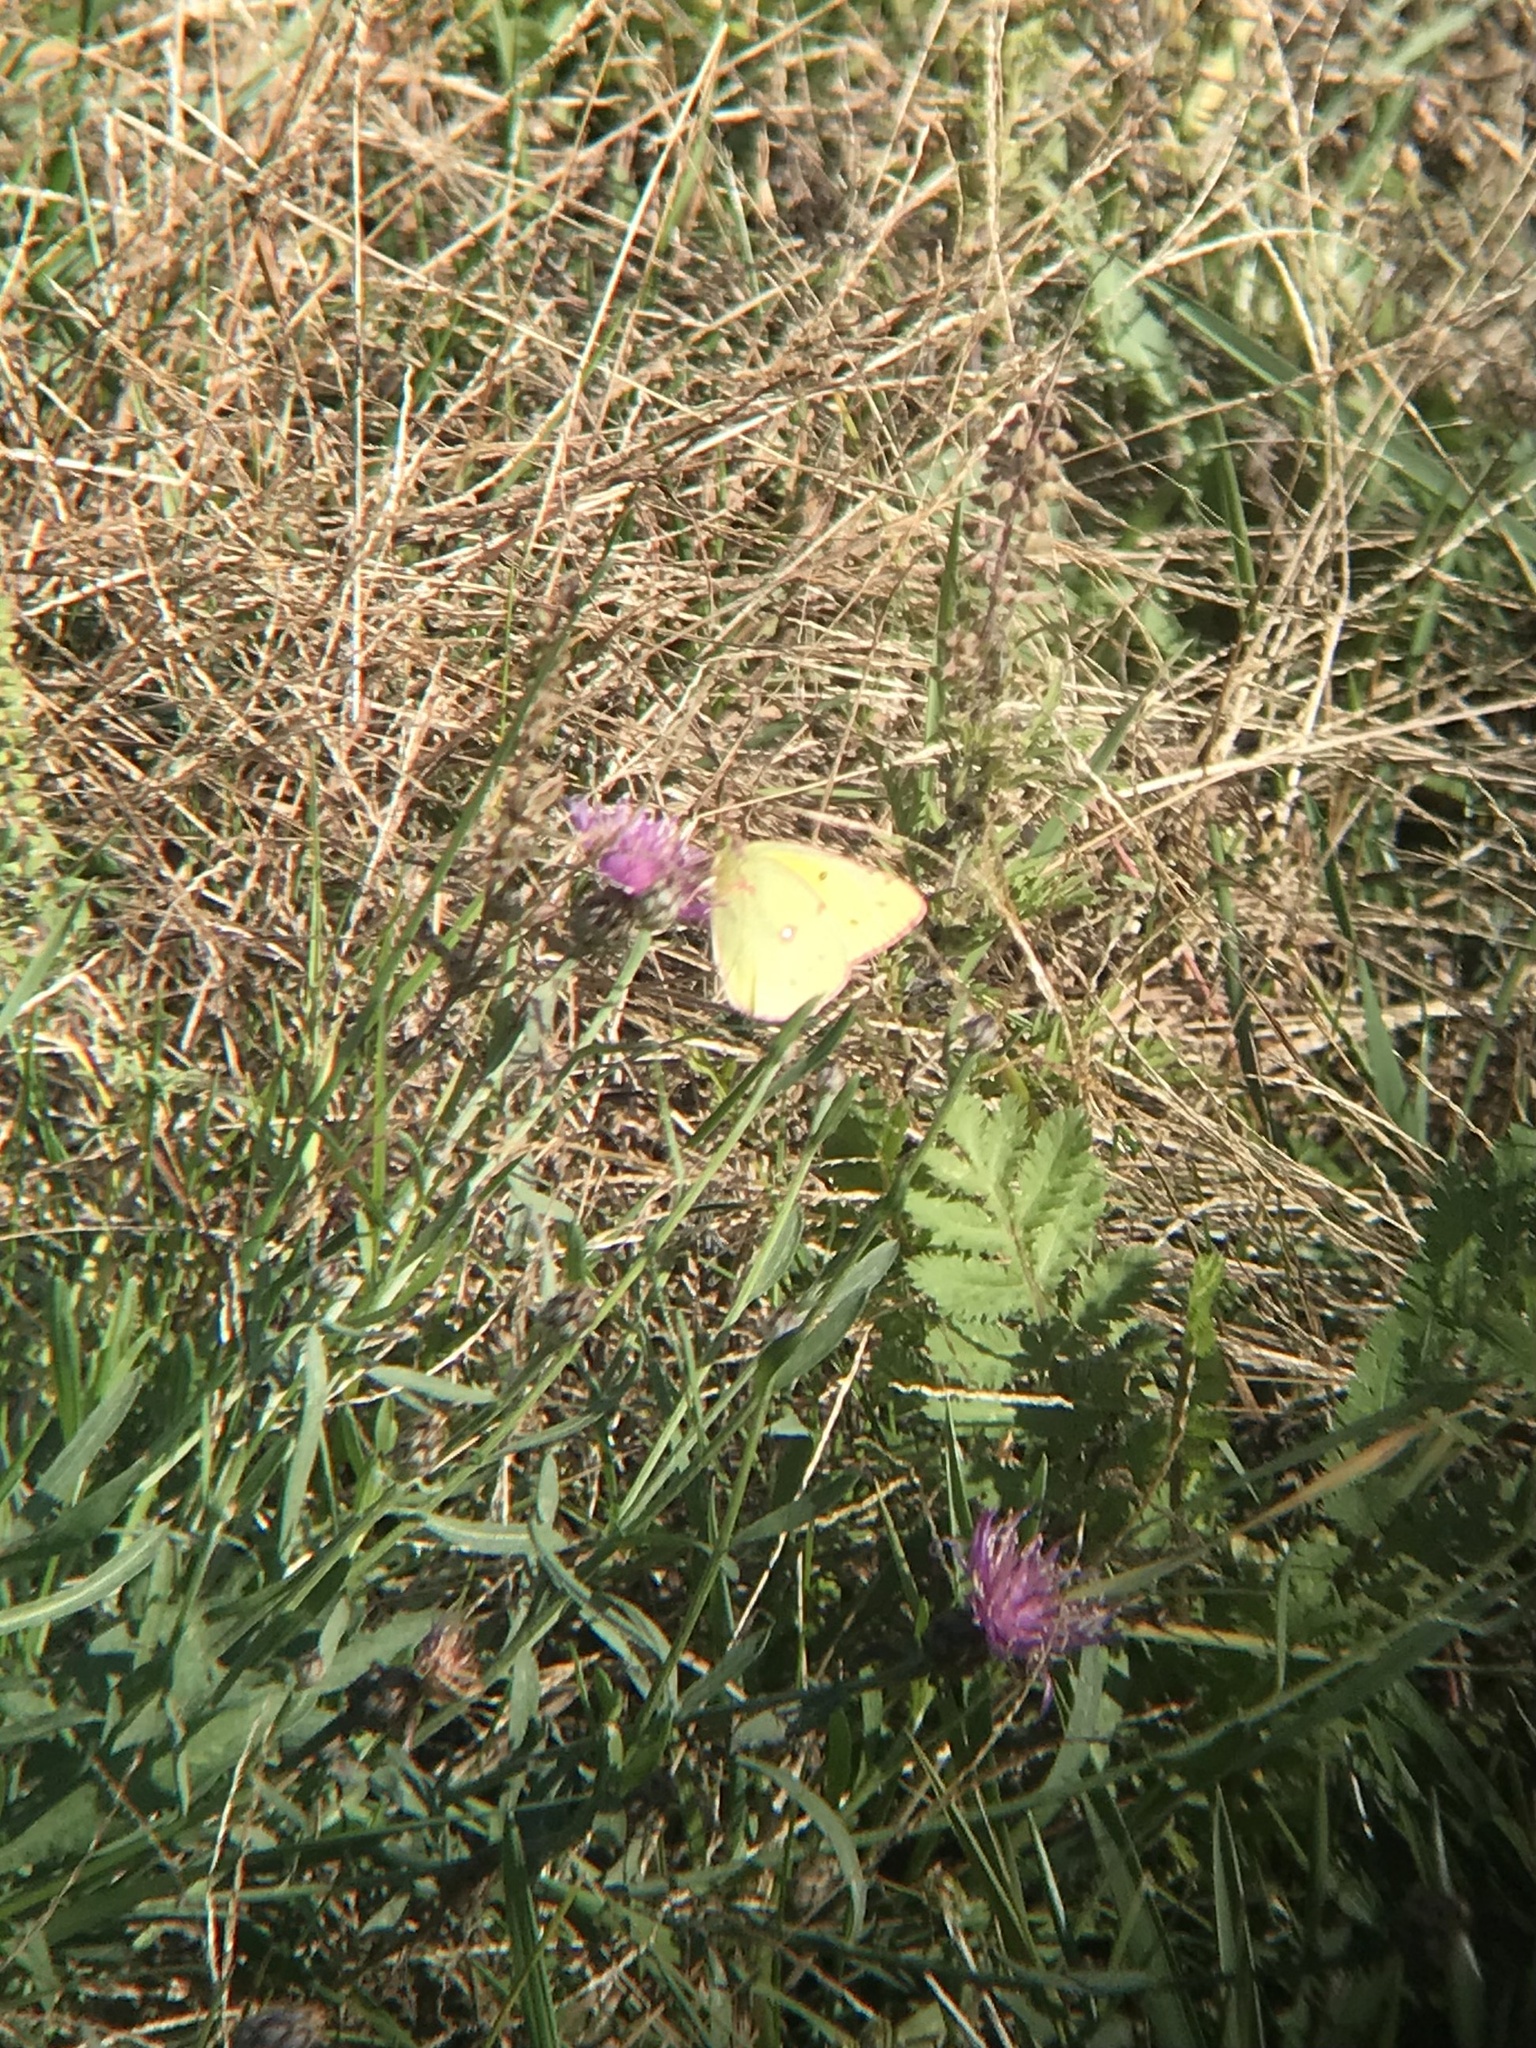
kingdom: Animalia
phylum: Arthropoda
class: Insecta
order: Lepidoptera
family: Pieridae
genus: Colias
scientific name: Colias philodice
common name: Clouded sulphur
